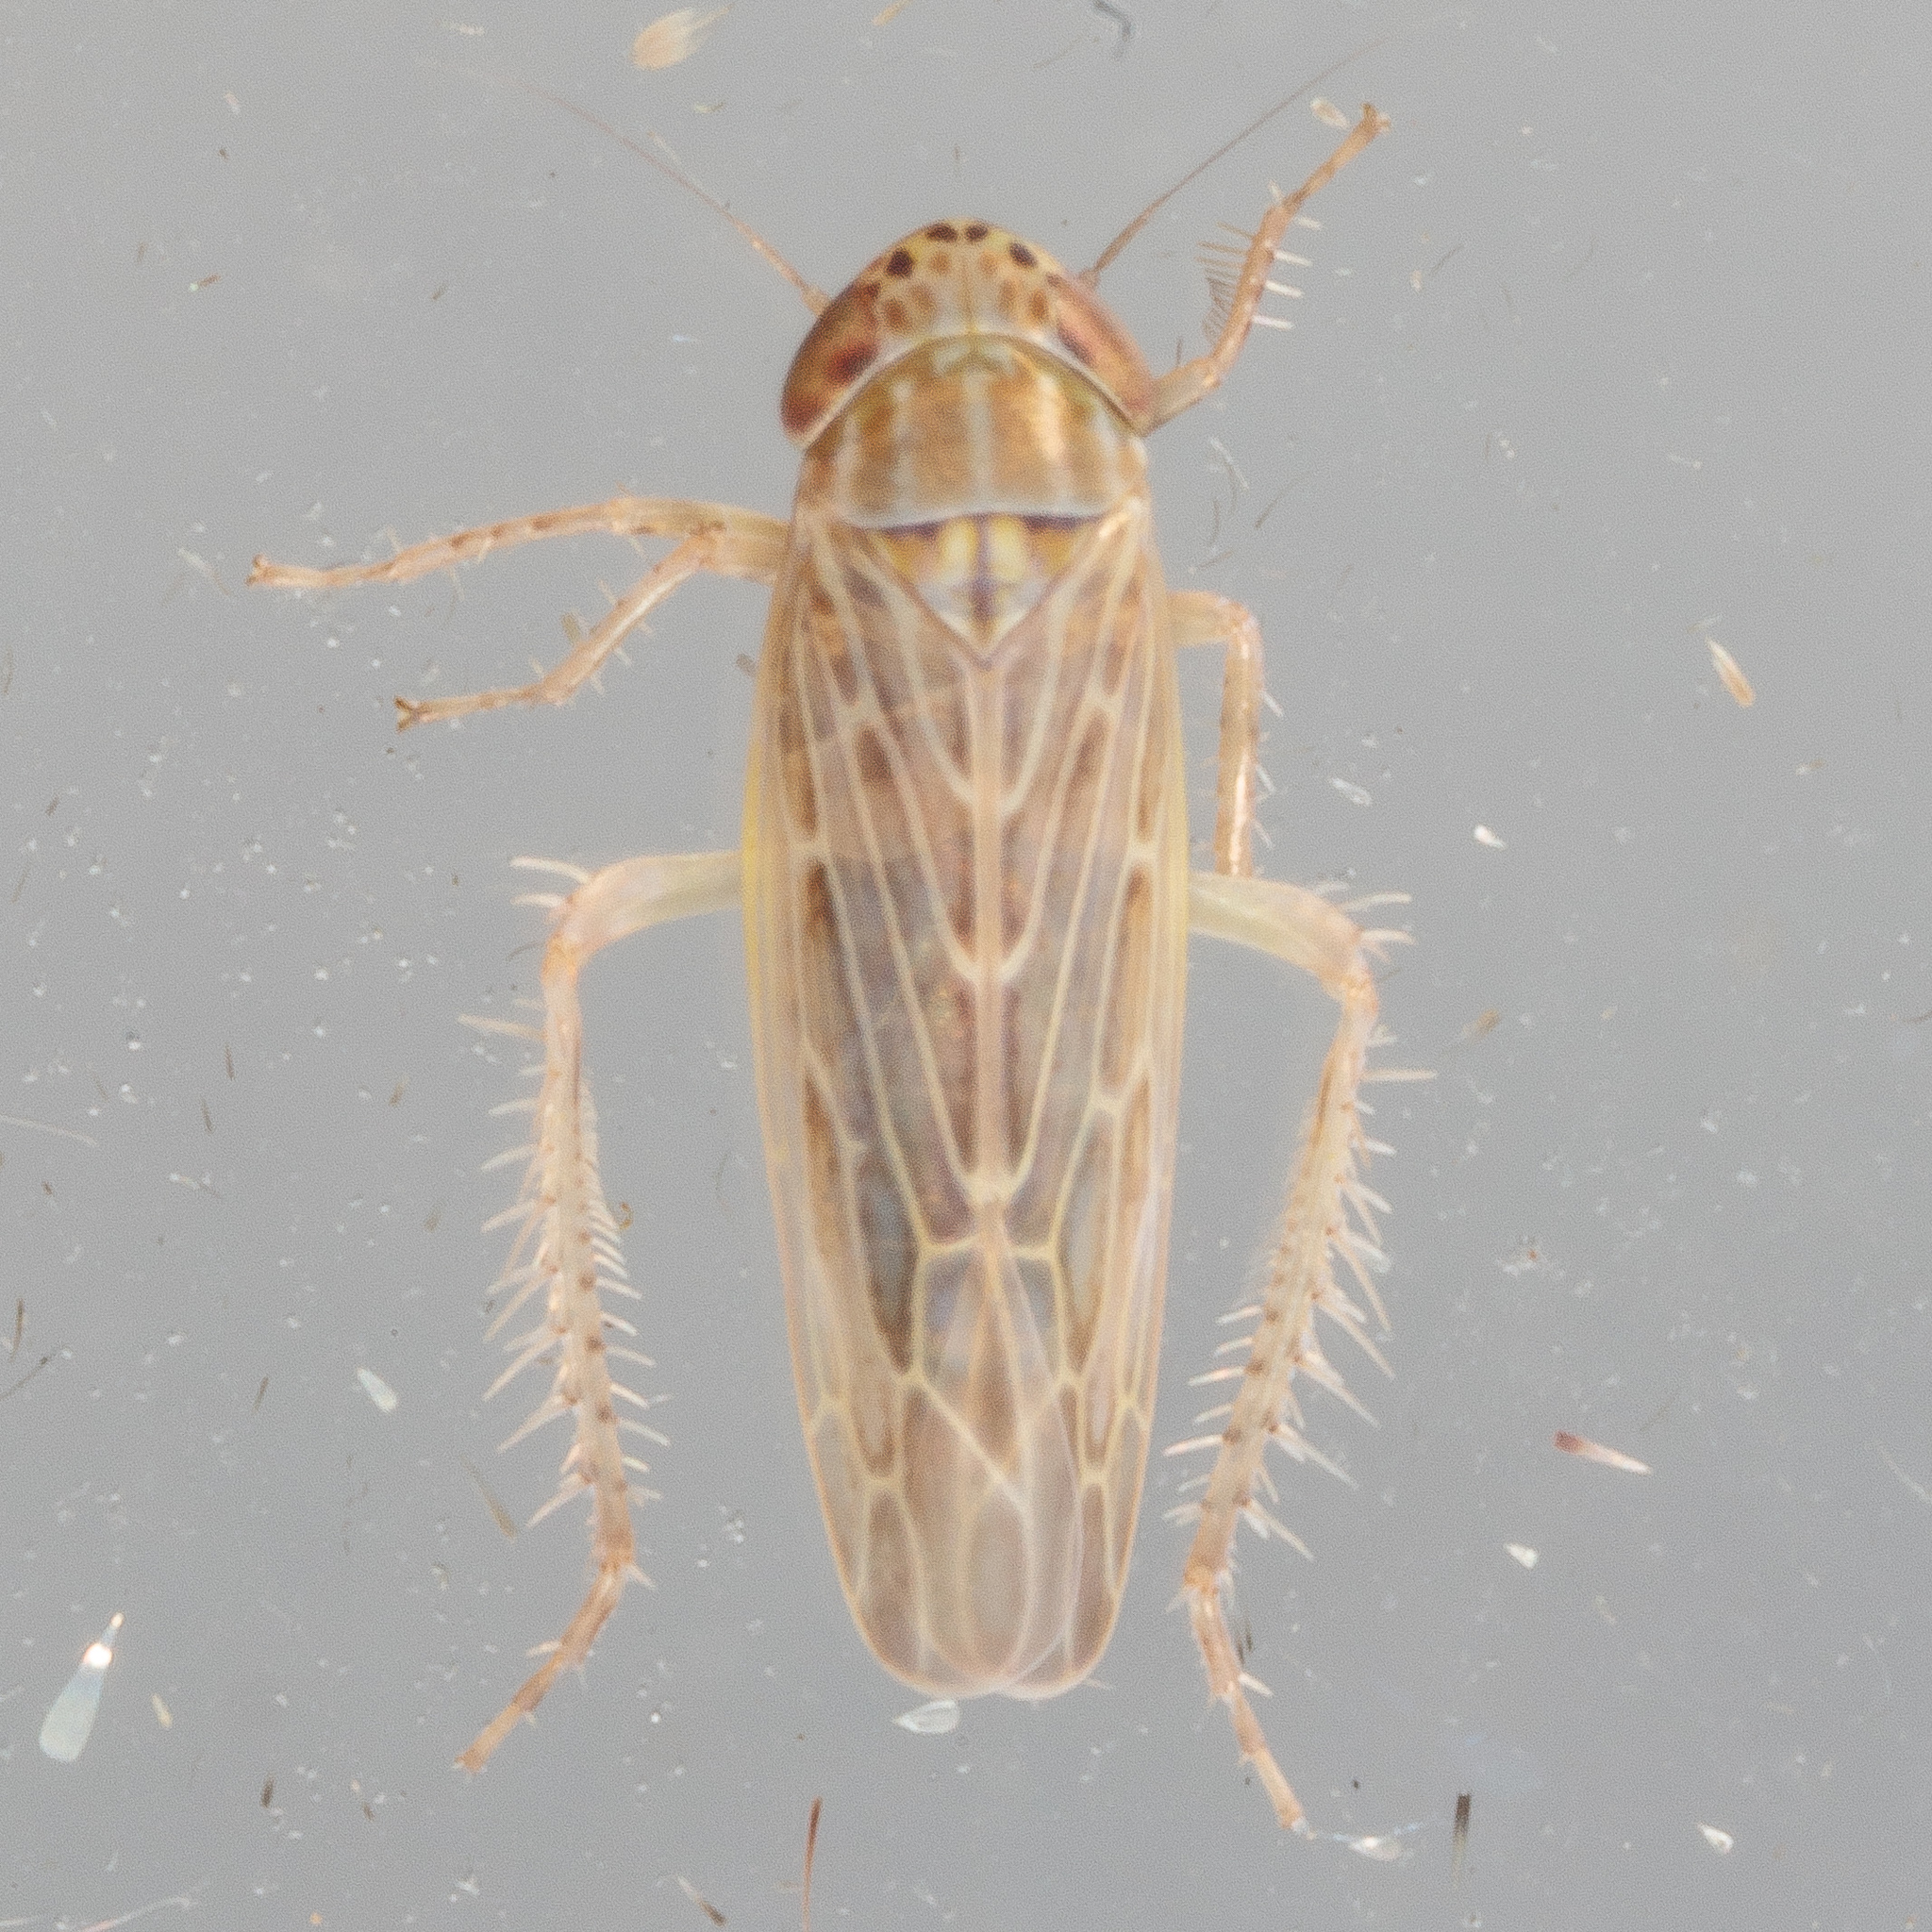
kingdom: Animalia
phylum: Arthropoda
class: Insecta
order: Hemiptera
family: Cicadellidae
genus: Graminella
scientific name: Graminella sonora
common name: Lesser lawn leafhopper
